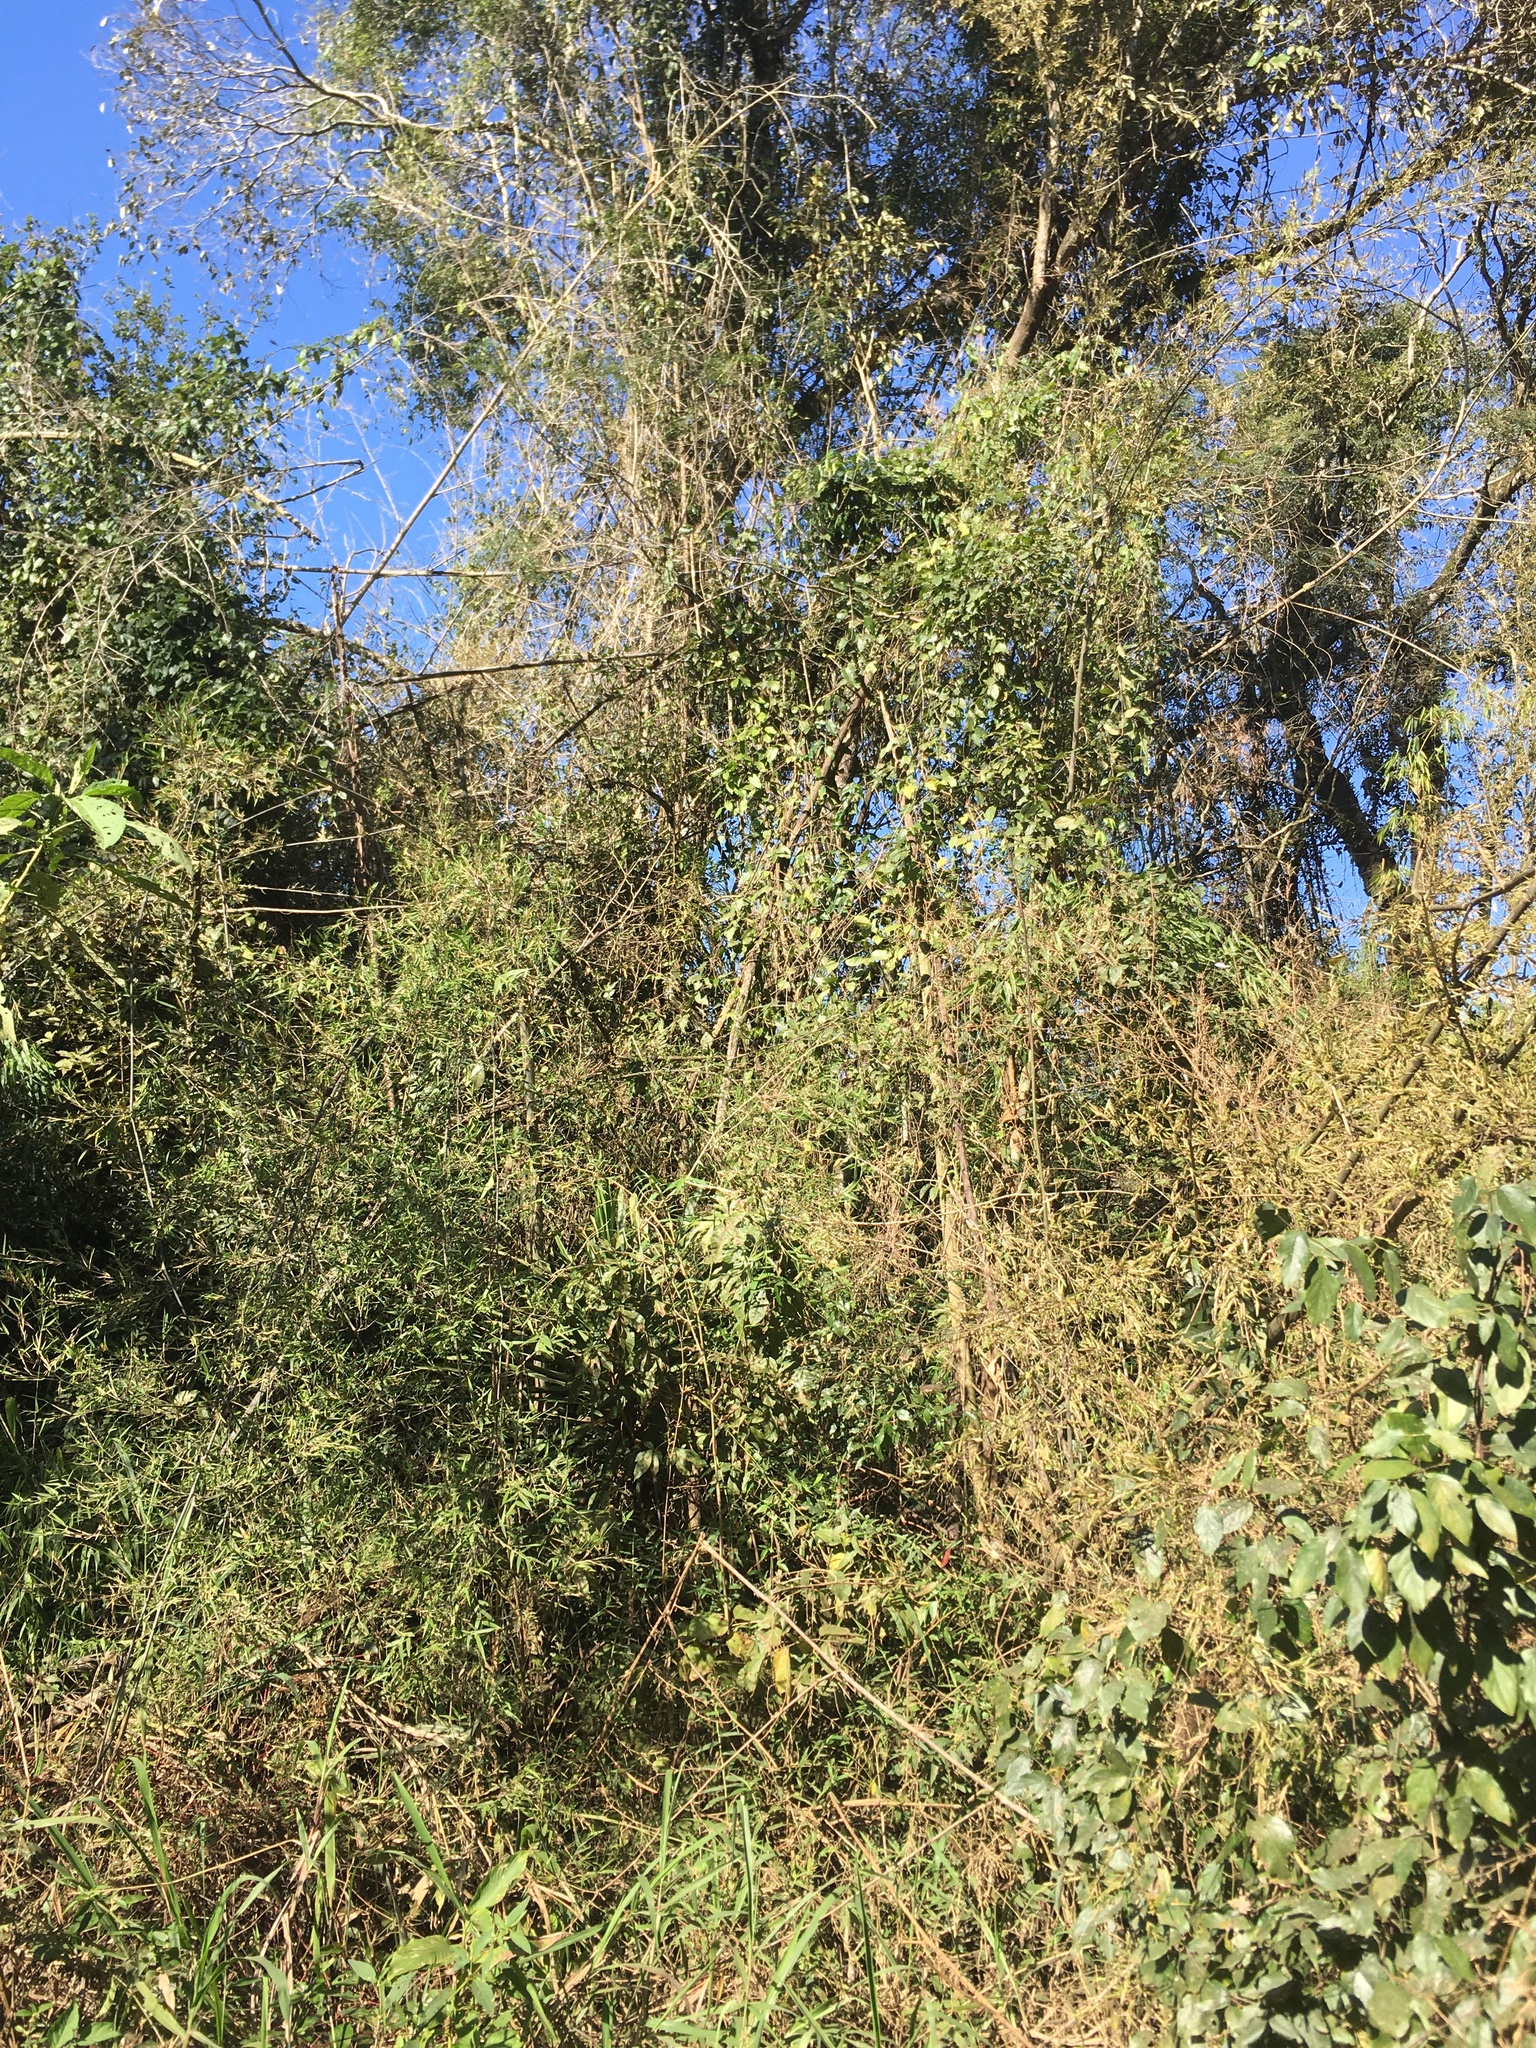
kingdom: Plantae
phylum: Tracheophyta
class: Liliopsida
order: Poales
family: Poaceae
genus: Guadua
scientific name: Guadua trinii
